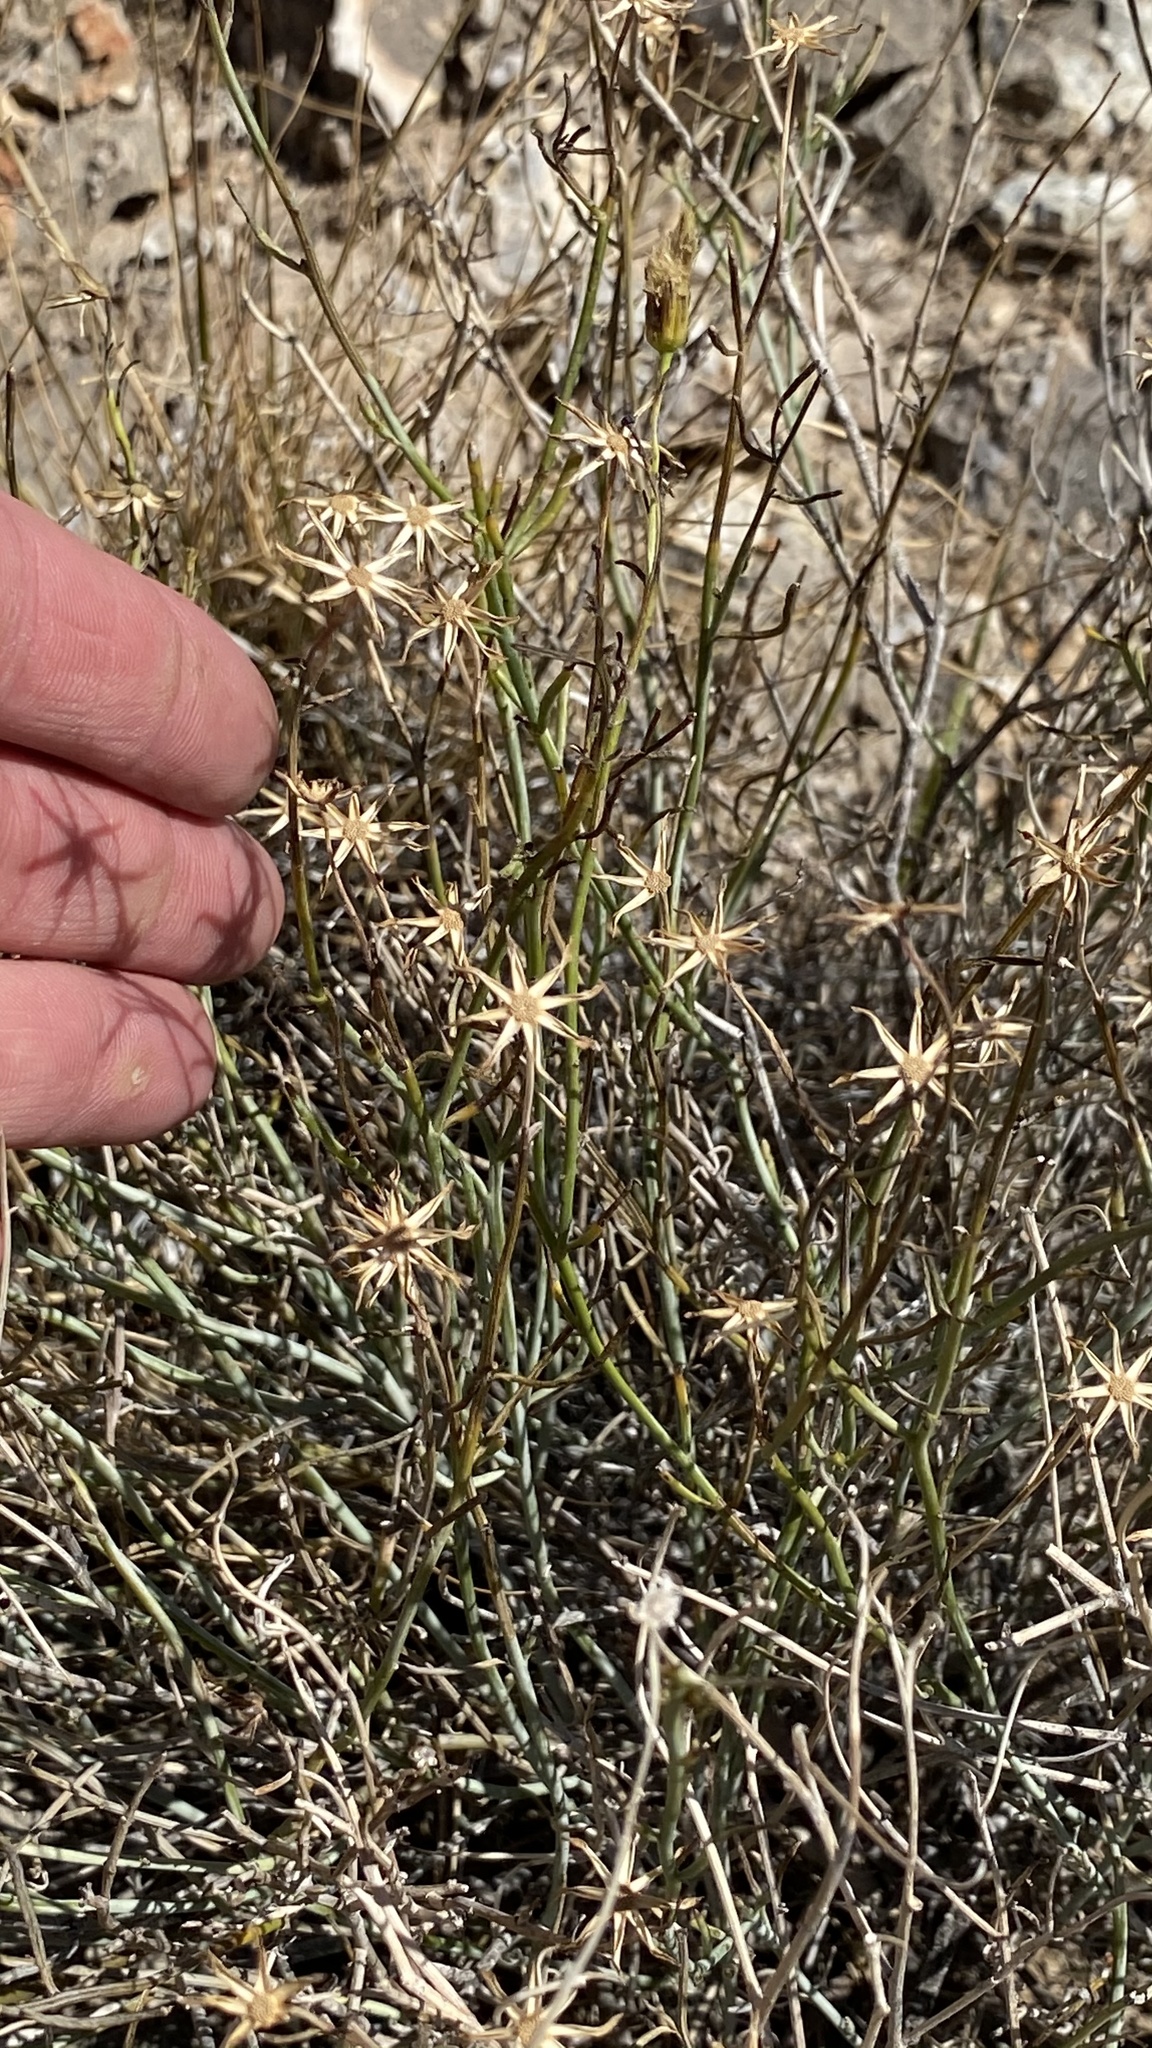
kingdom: Plantae
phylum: Tracheophyta
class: Magnoliopsida
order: Asterales
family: Asteraceae
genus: Porophyllum
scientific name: Porophyllum scoparium
